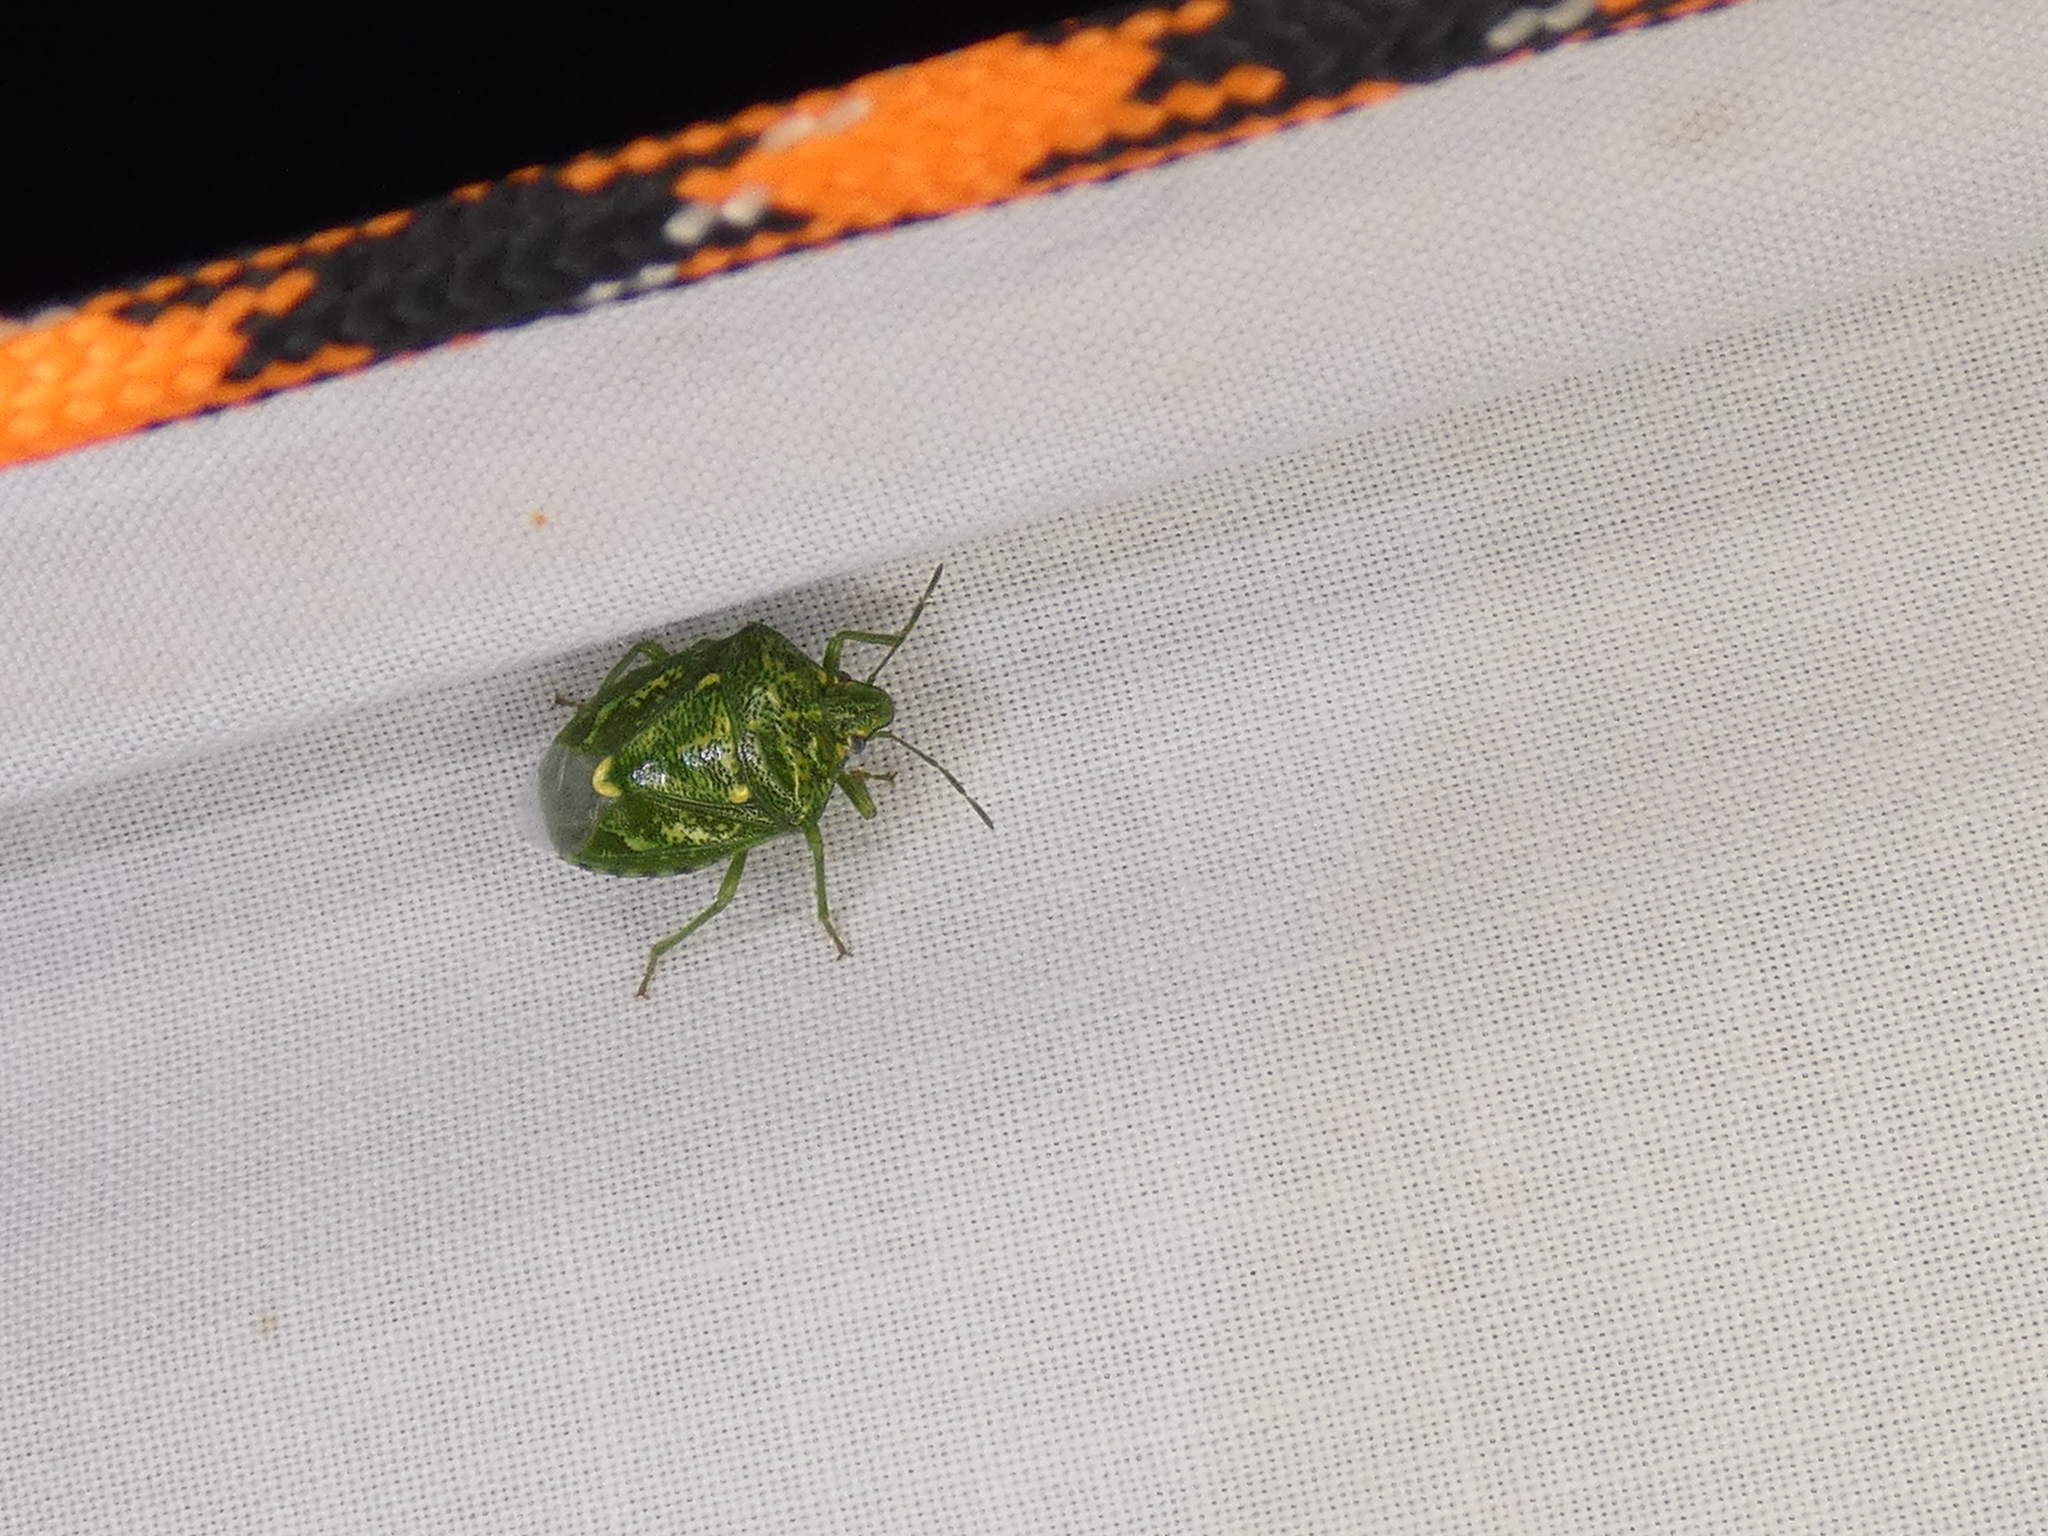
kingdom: Animalia
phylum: Arthropoda
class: Insecta
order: Hemiptera
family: Pentatomidae
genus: Banasa
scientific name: Banasa euchlora
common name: Cedar berry bug
